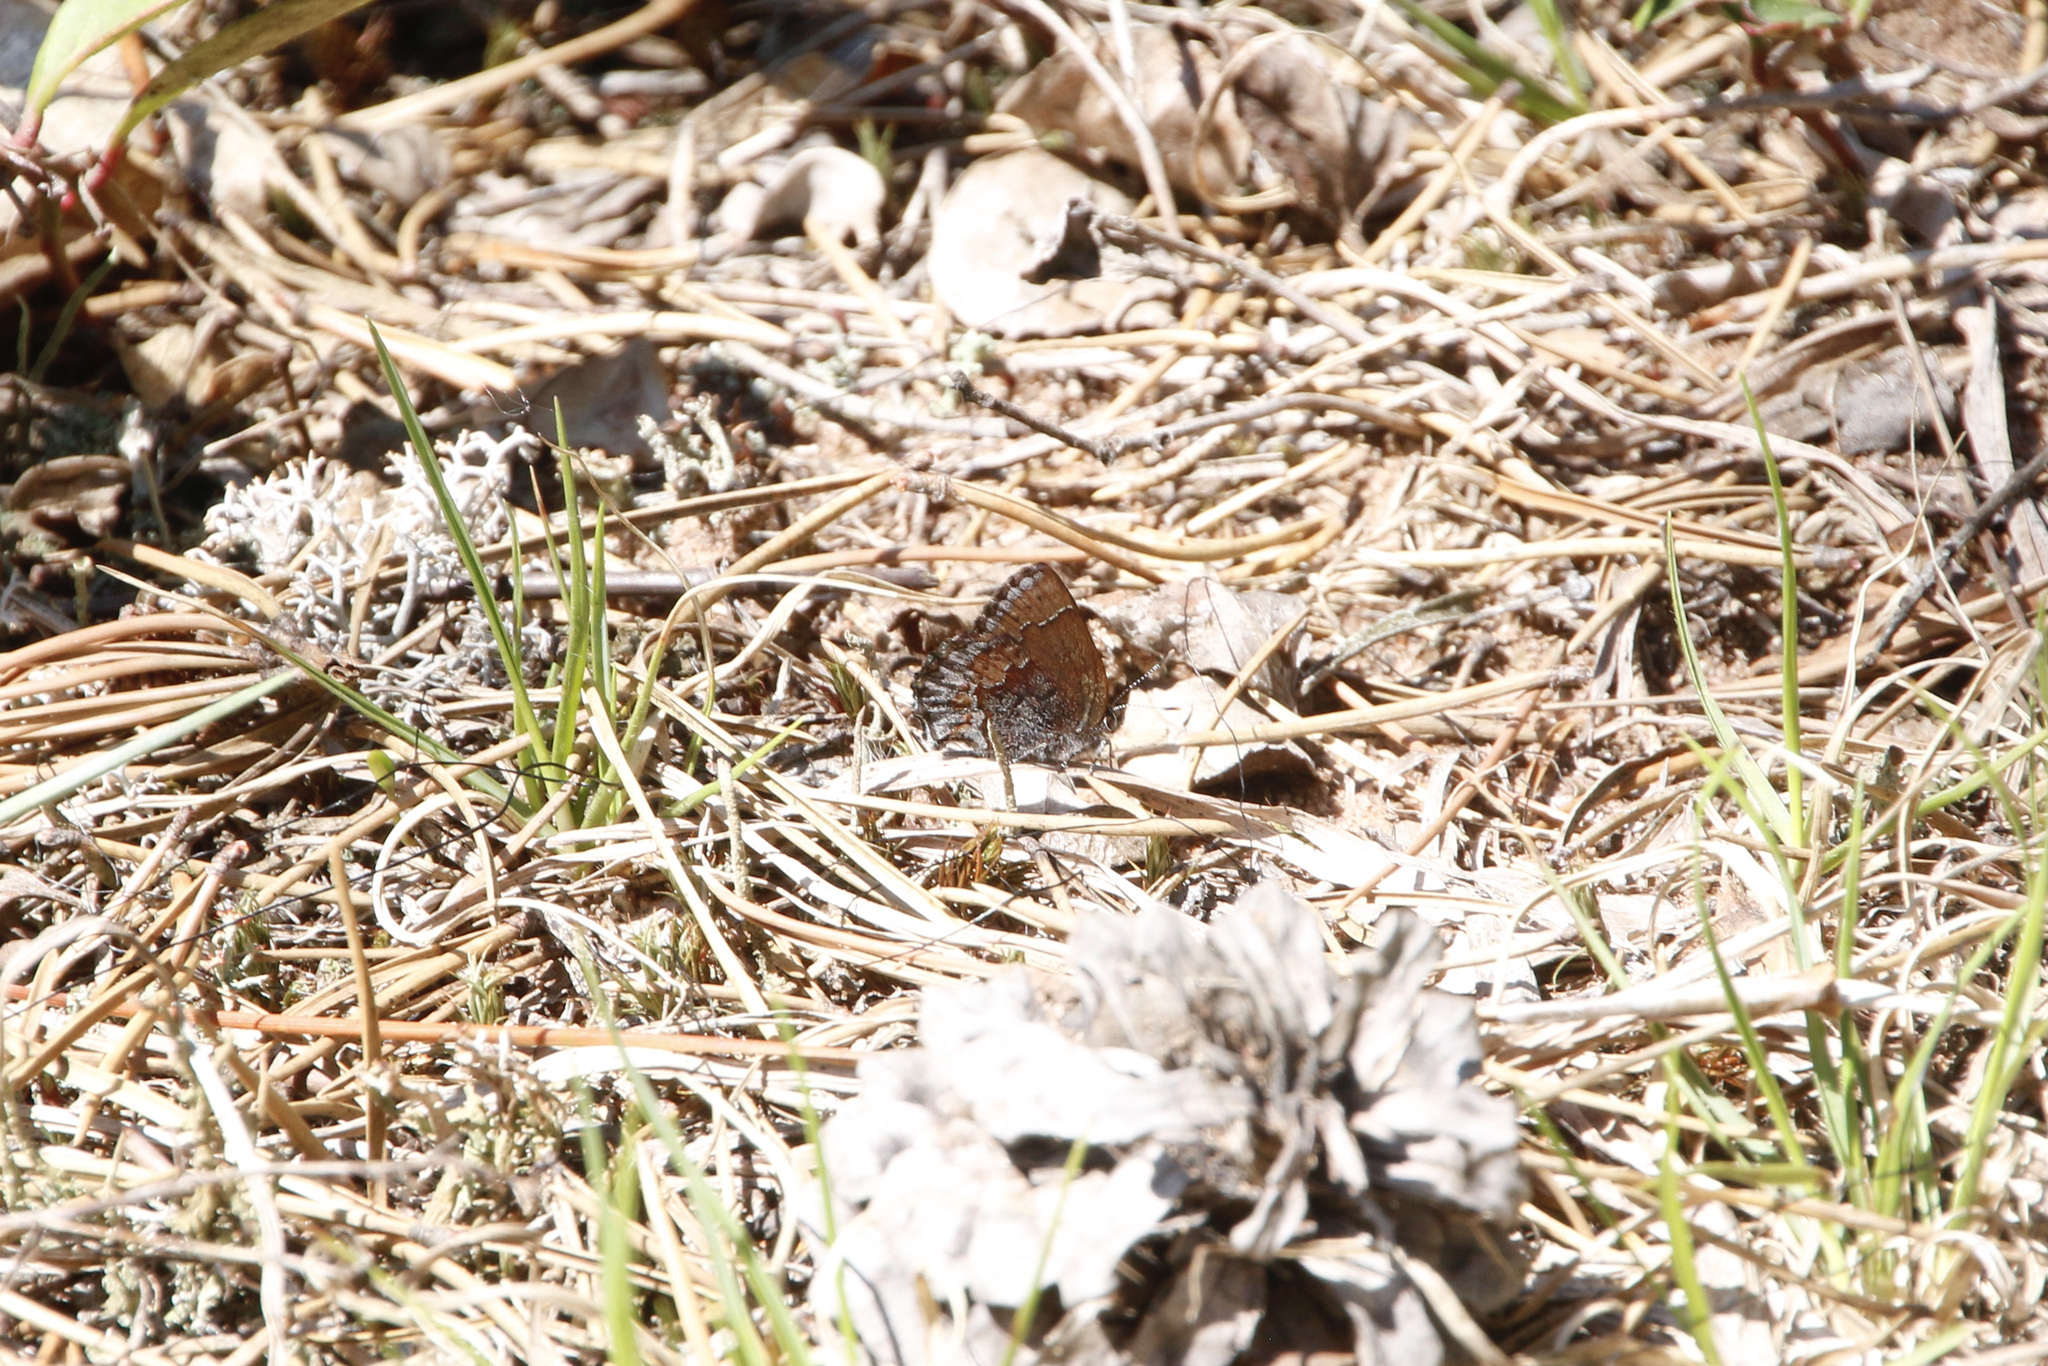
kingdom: Animalia
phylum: Arthropoda
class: Insecta
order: Lepidoptera
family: Lycaenidae
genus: Callophrys
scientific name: Callophrys polios
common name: Hoary elfin
